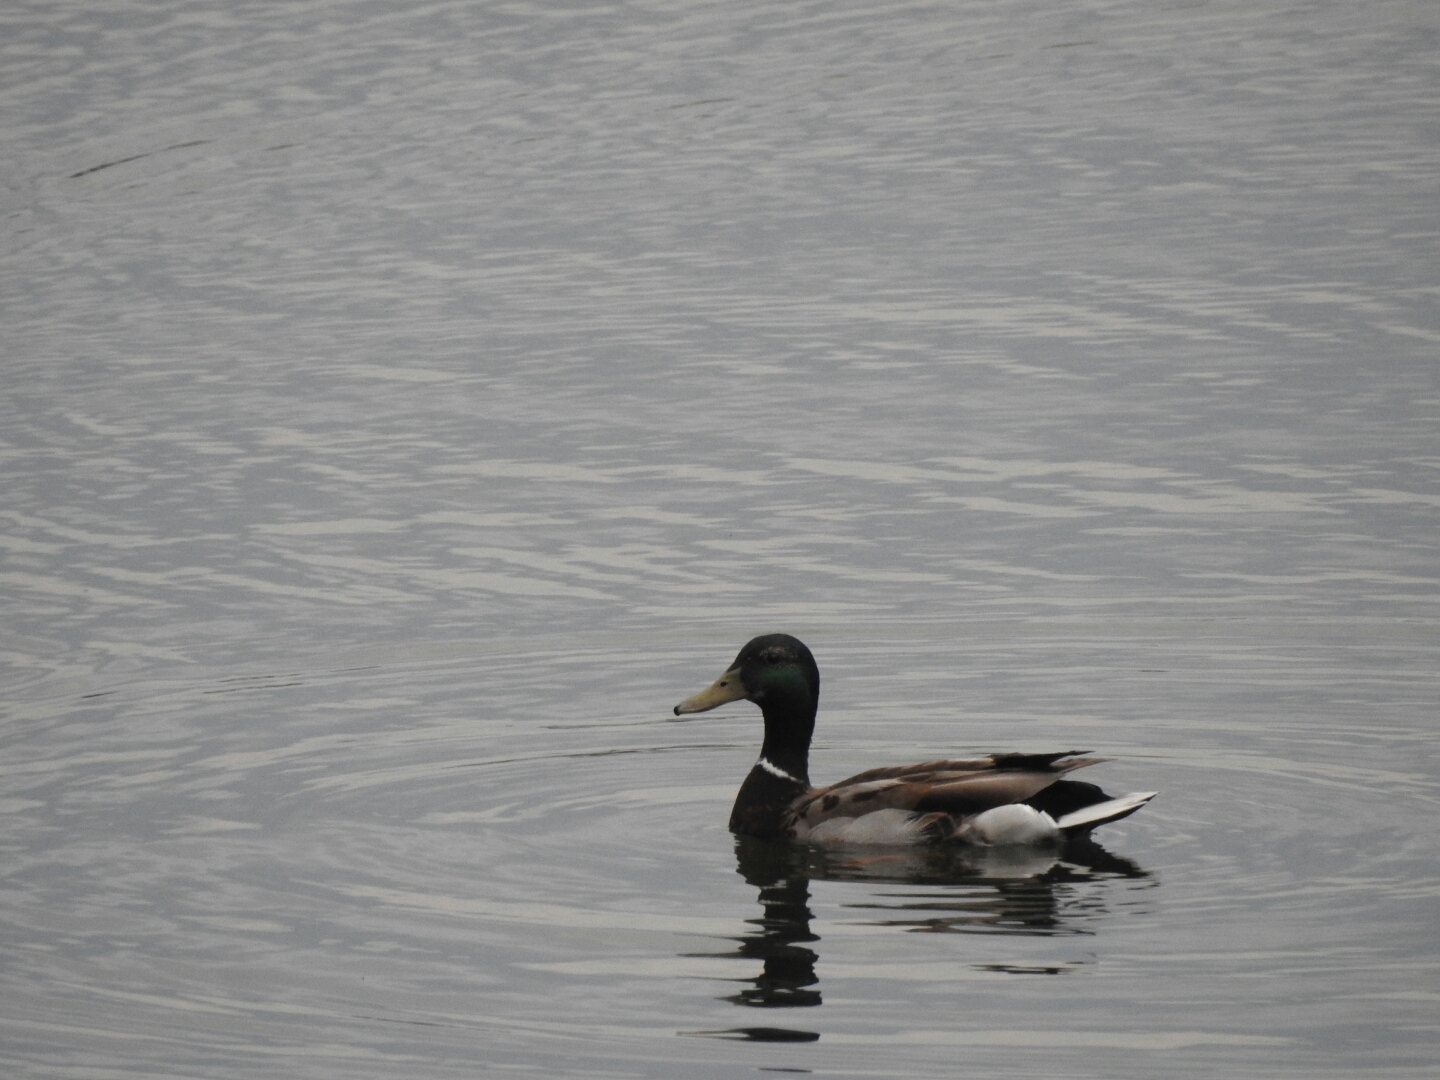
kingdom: Animalia
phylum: Chordata
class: Aves
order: Anseriformes
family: Anatidae
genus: Anas
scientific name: Anas platyrhynchos
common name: Mallard
